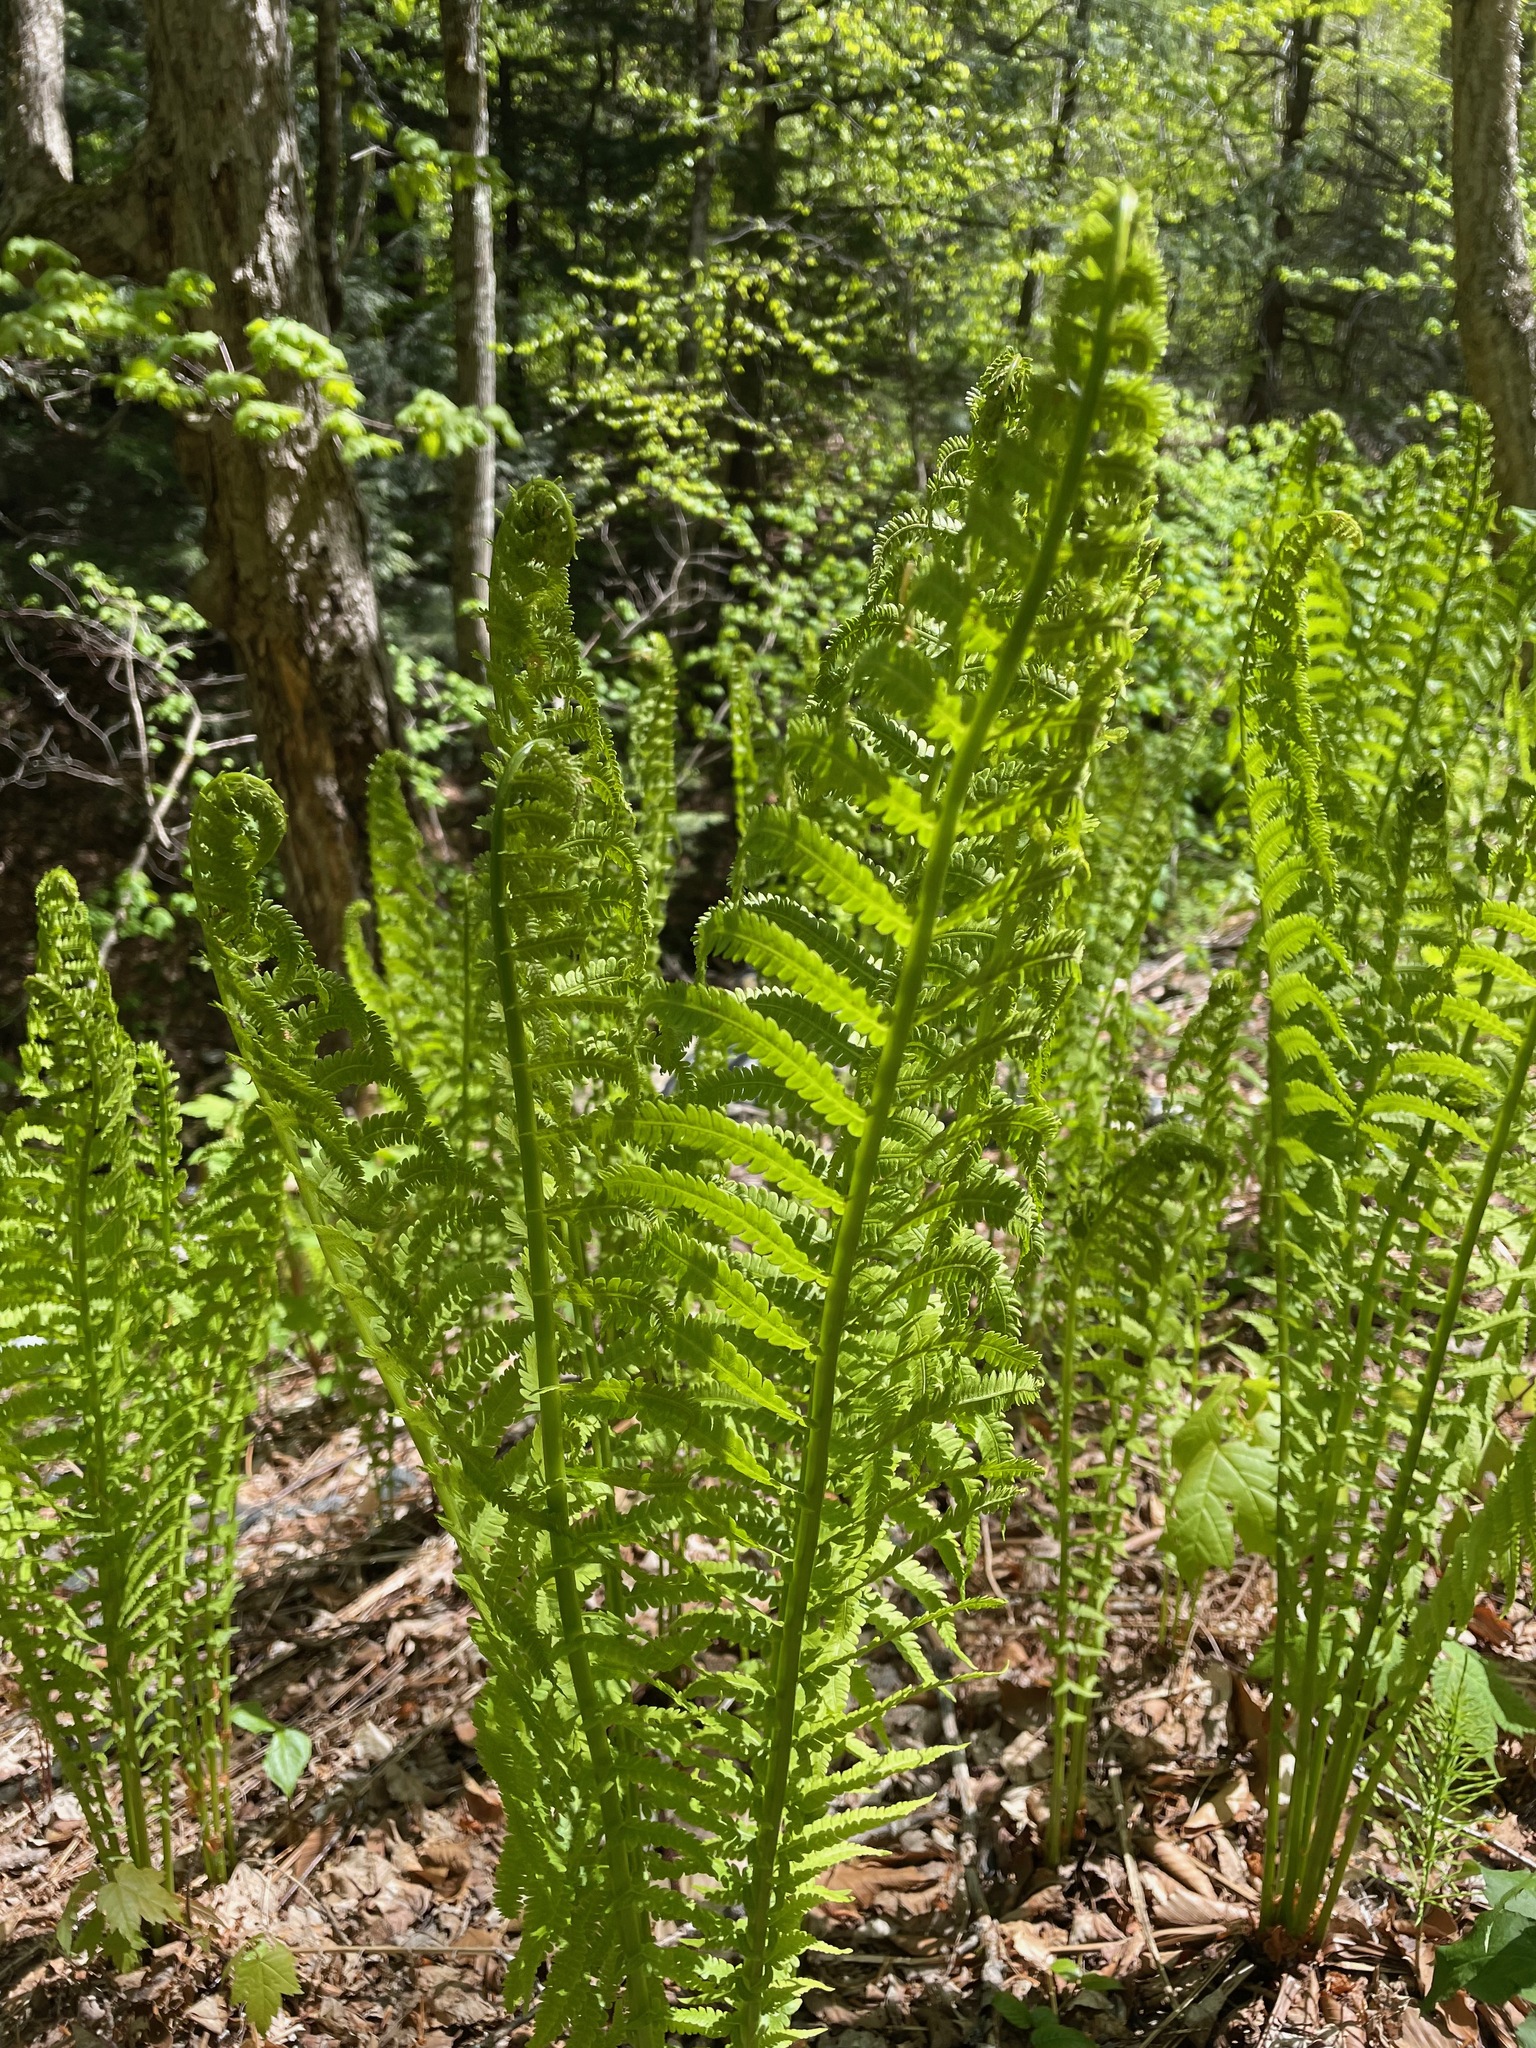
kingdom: Plantae
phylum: Tracheophyta
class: Polypodiopsida
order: Polypodiales
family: Onocleaceae
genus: Matteuccia
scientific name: Matteuccia struthiopteris
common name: Ostrich fern
